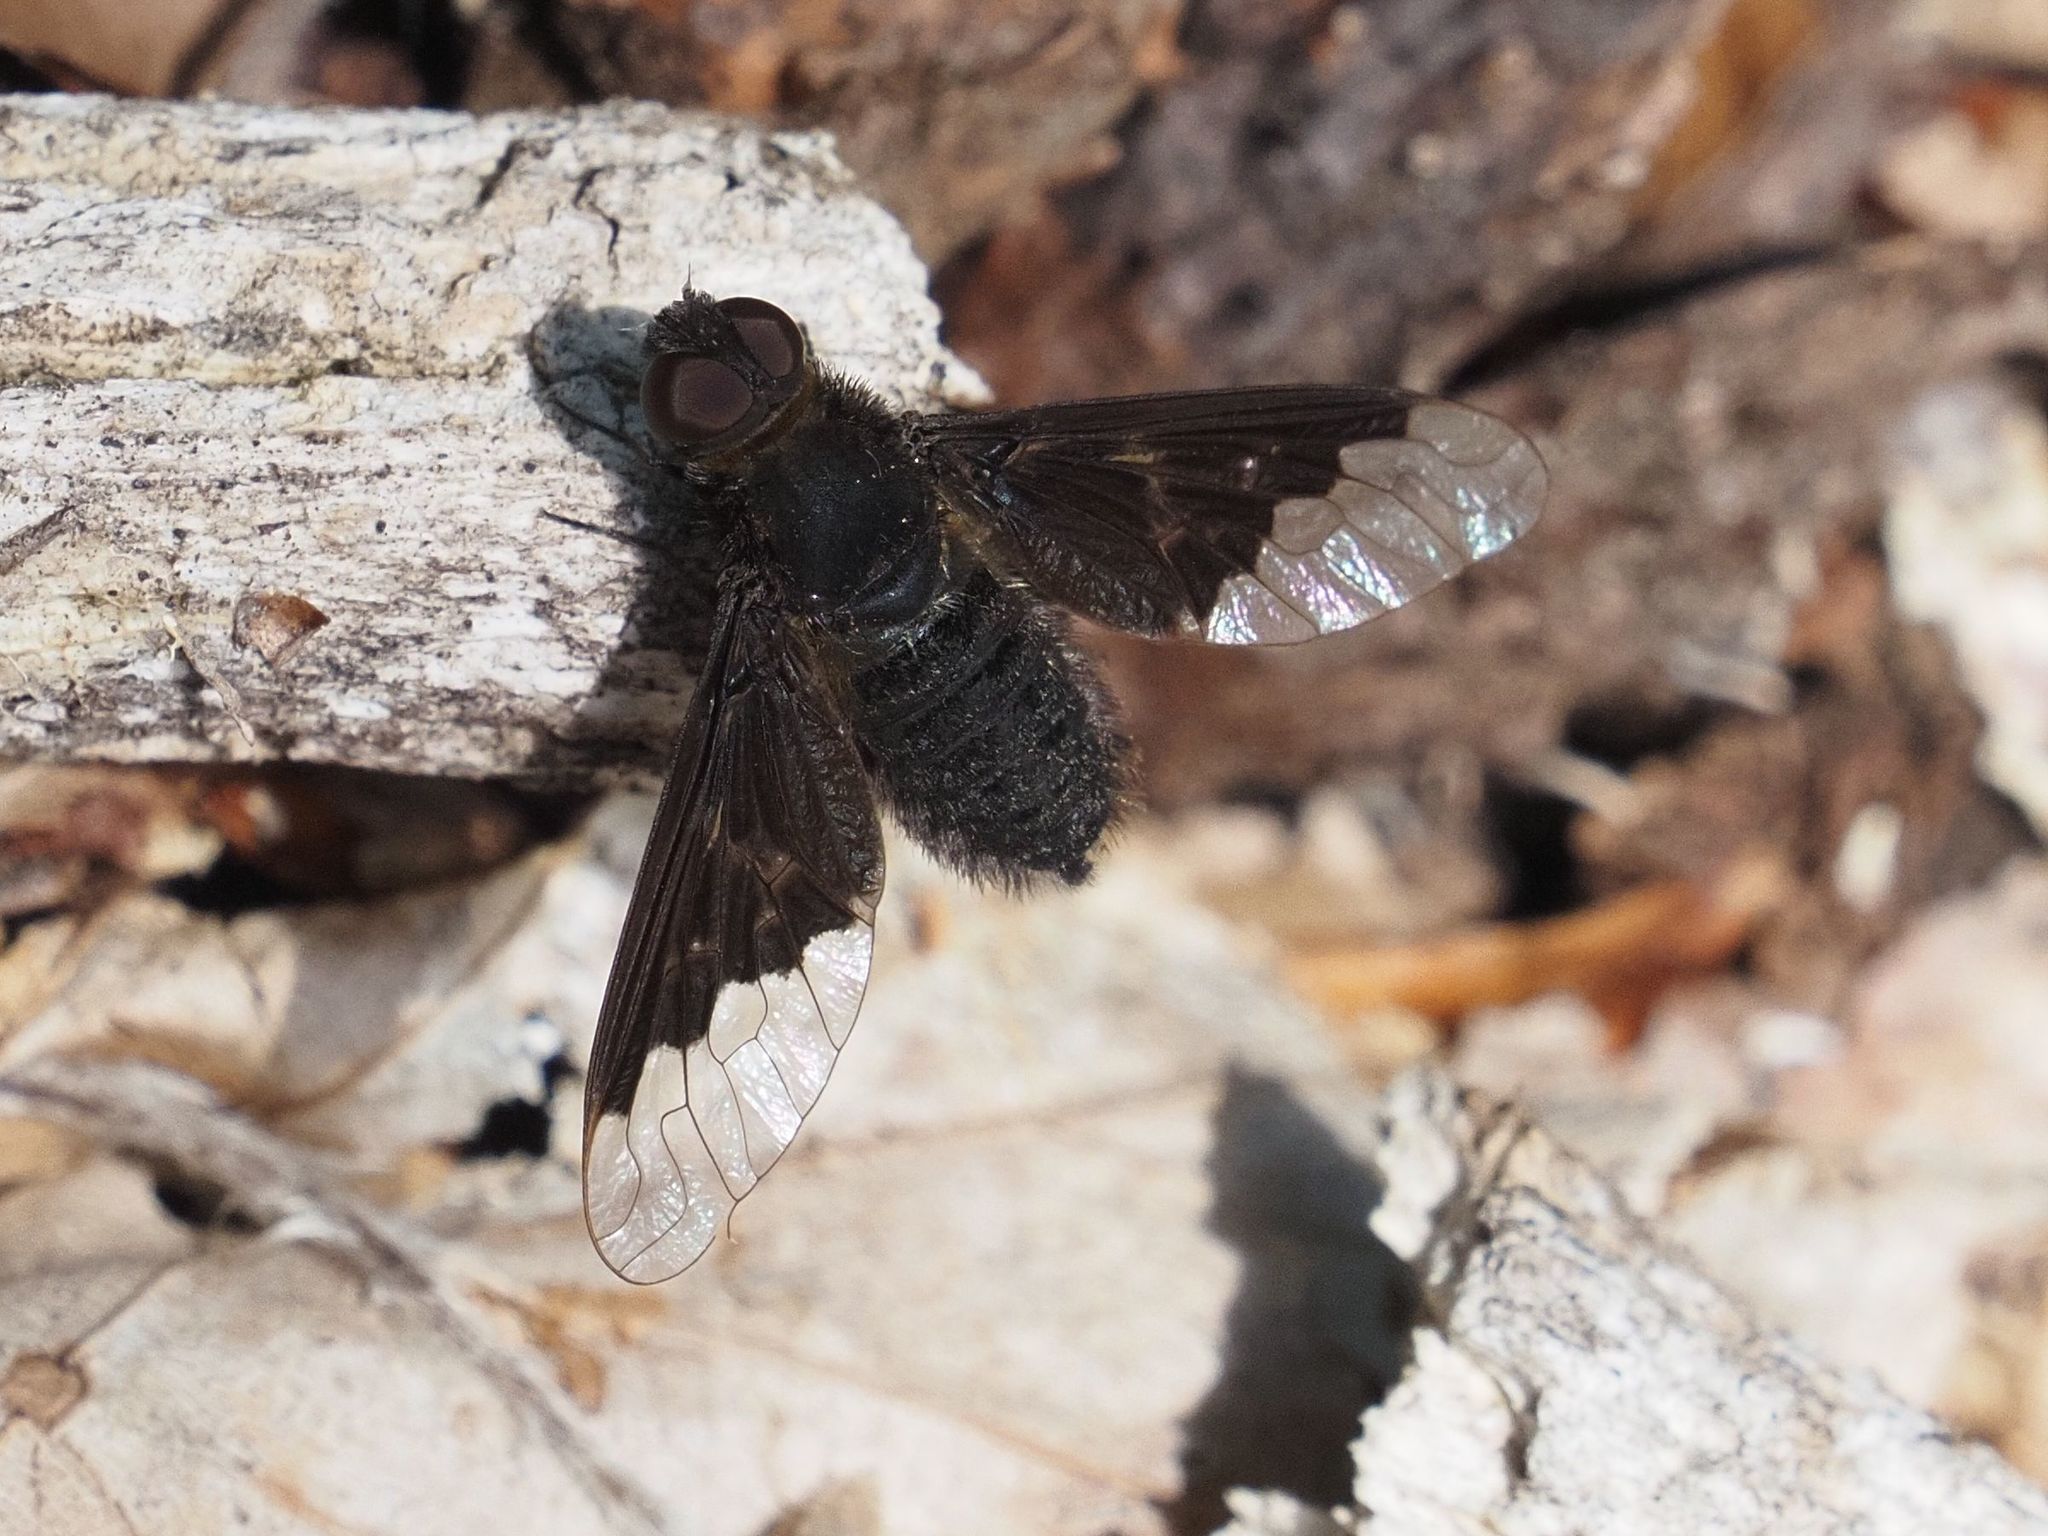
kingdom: Animalia
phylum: Arthropoda
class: Insecta
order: Diptera
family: Bombyliidae
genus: Hemipenthes
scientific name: Hemipenthes morio
